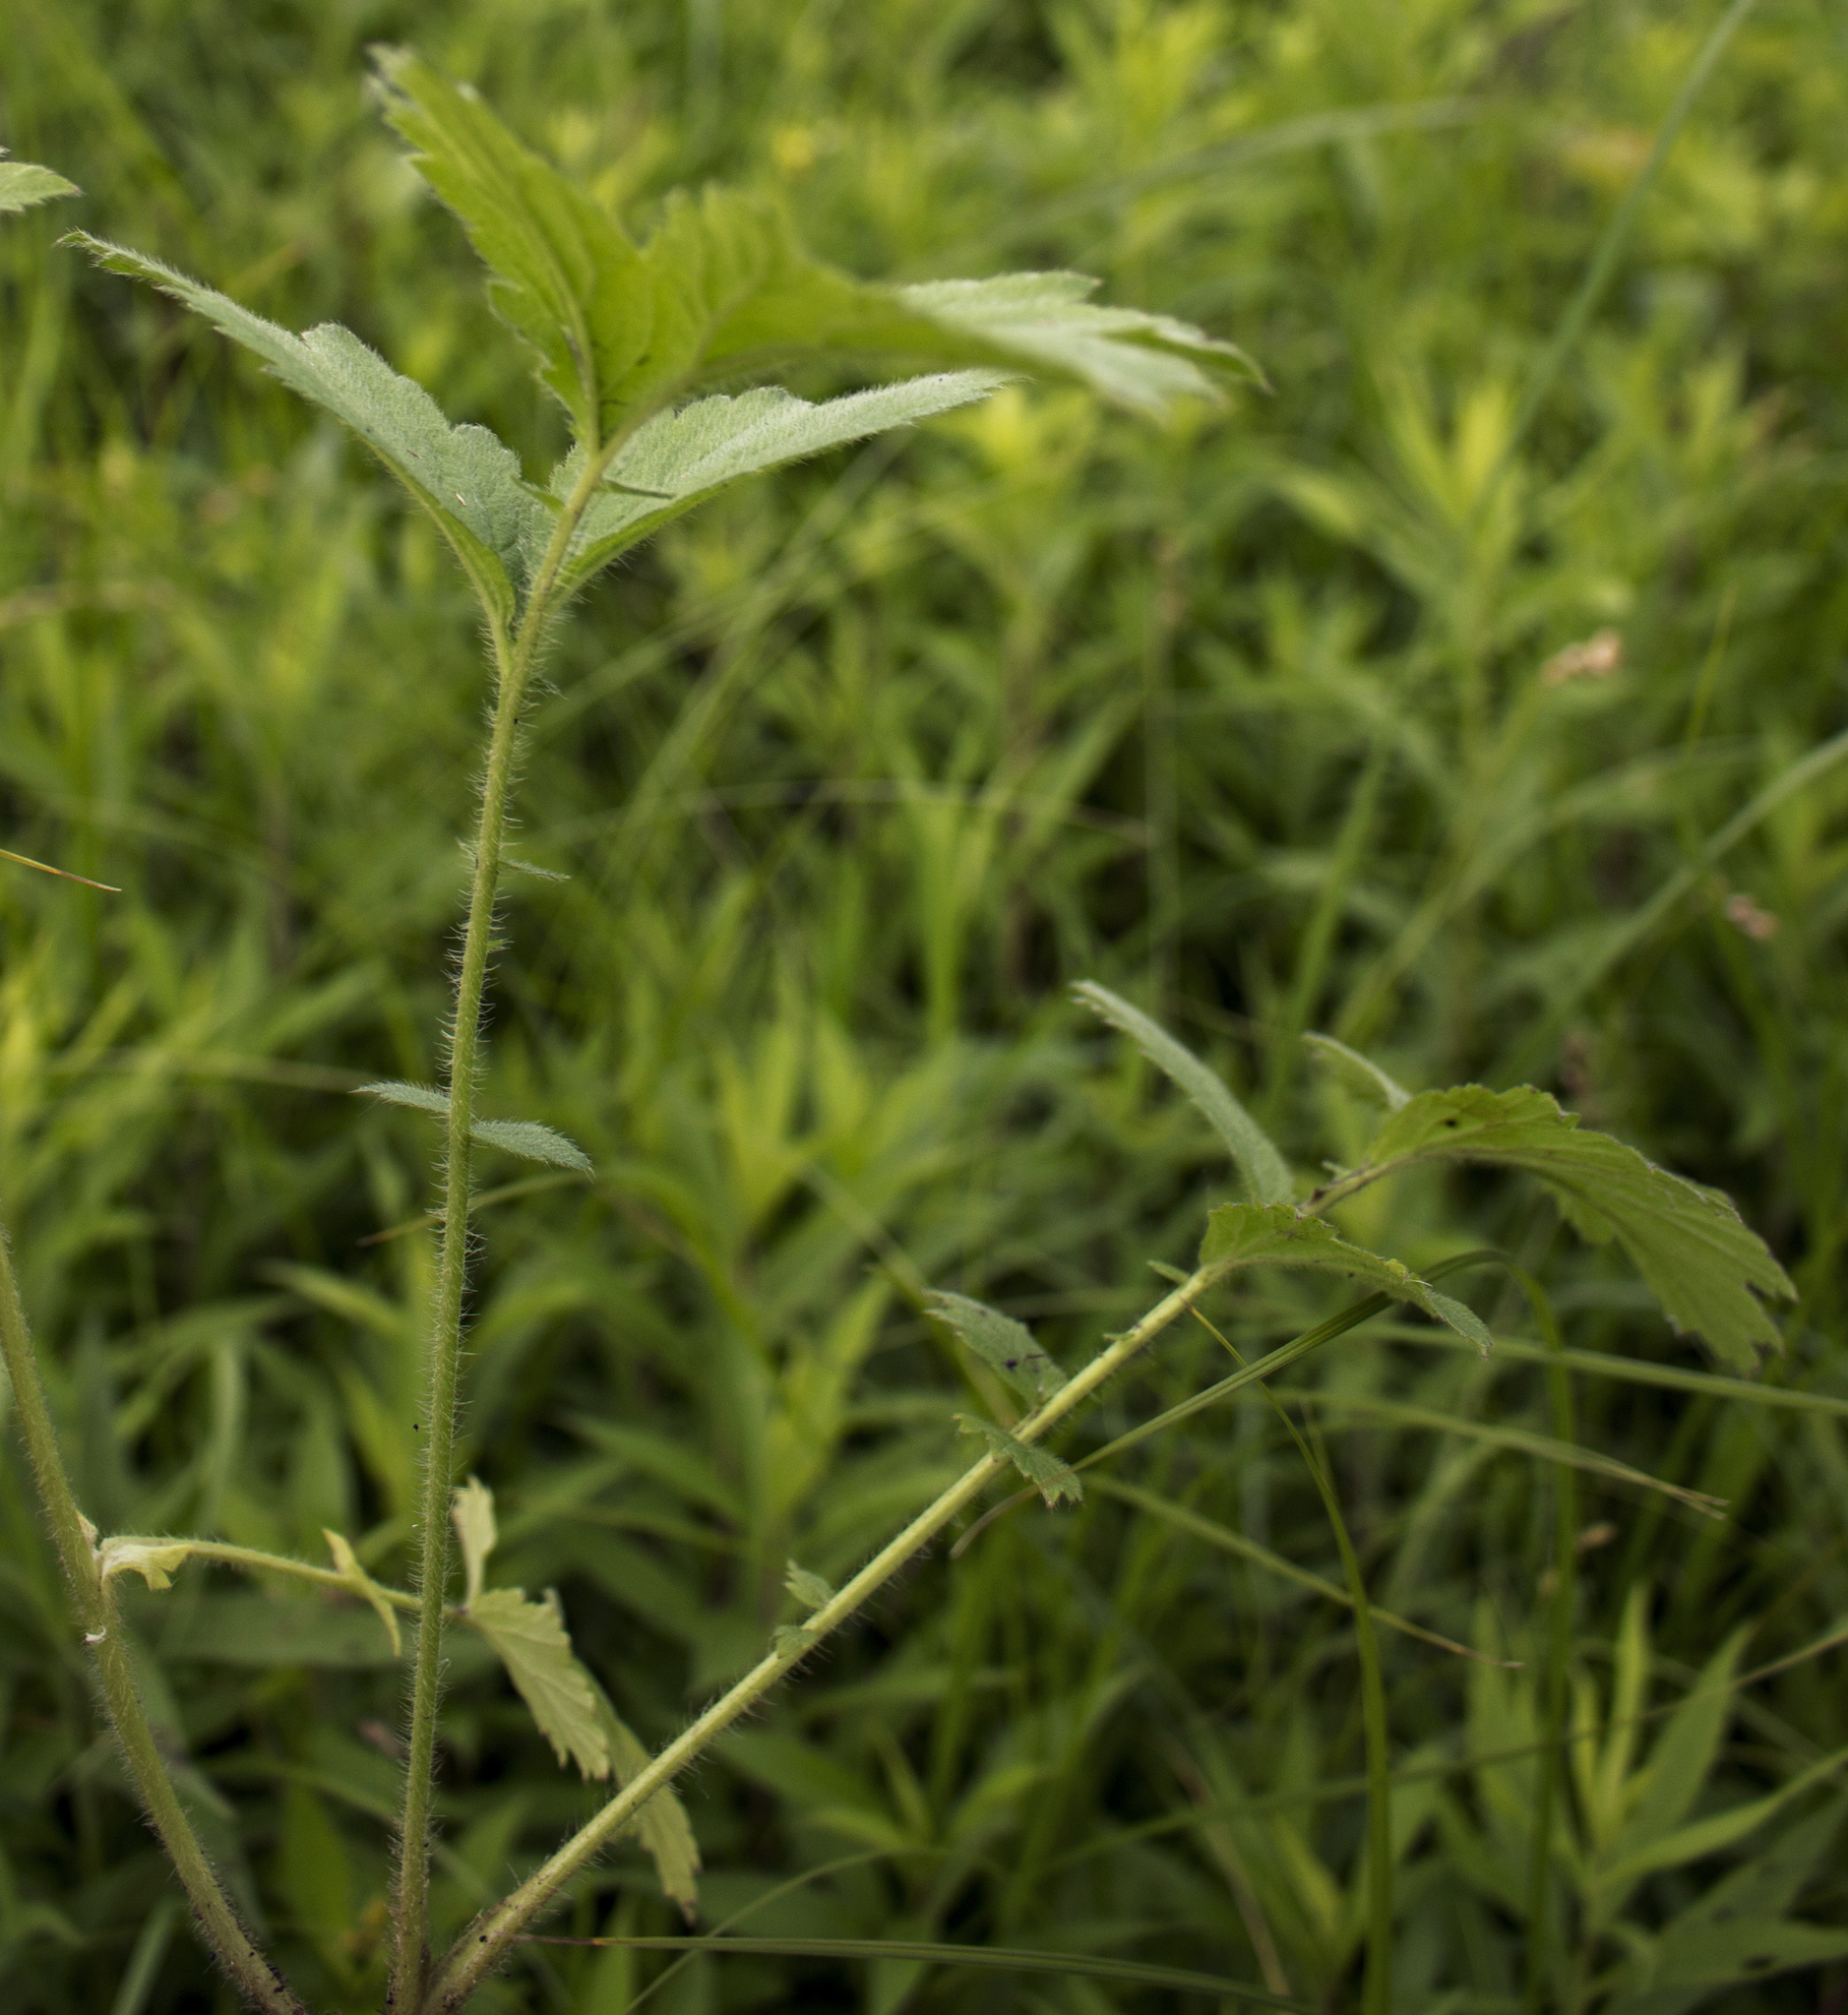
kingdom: Plantae
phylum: Tracheophyta
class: Magnoliopsida
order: Rosales
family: Rosaceae
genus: Geum
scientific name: Geum aleppicum
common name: Yellow avens
